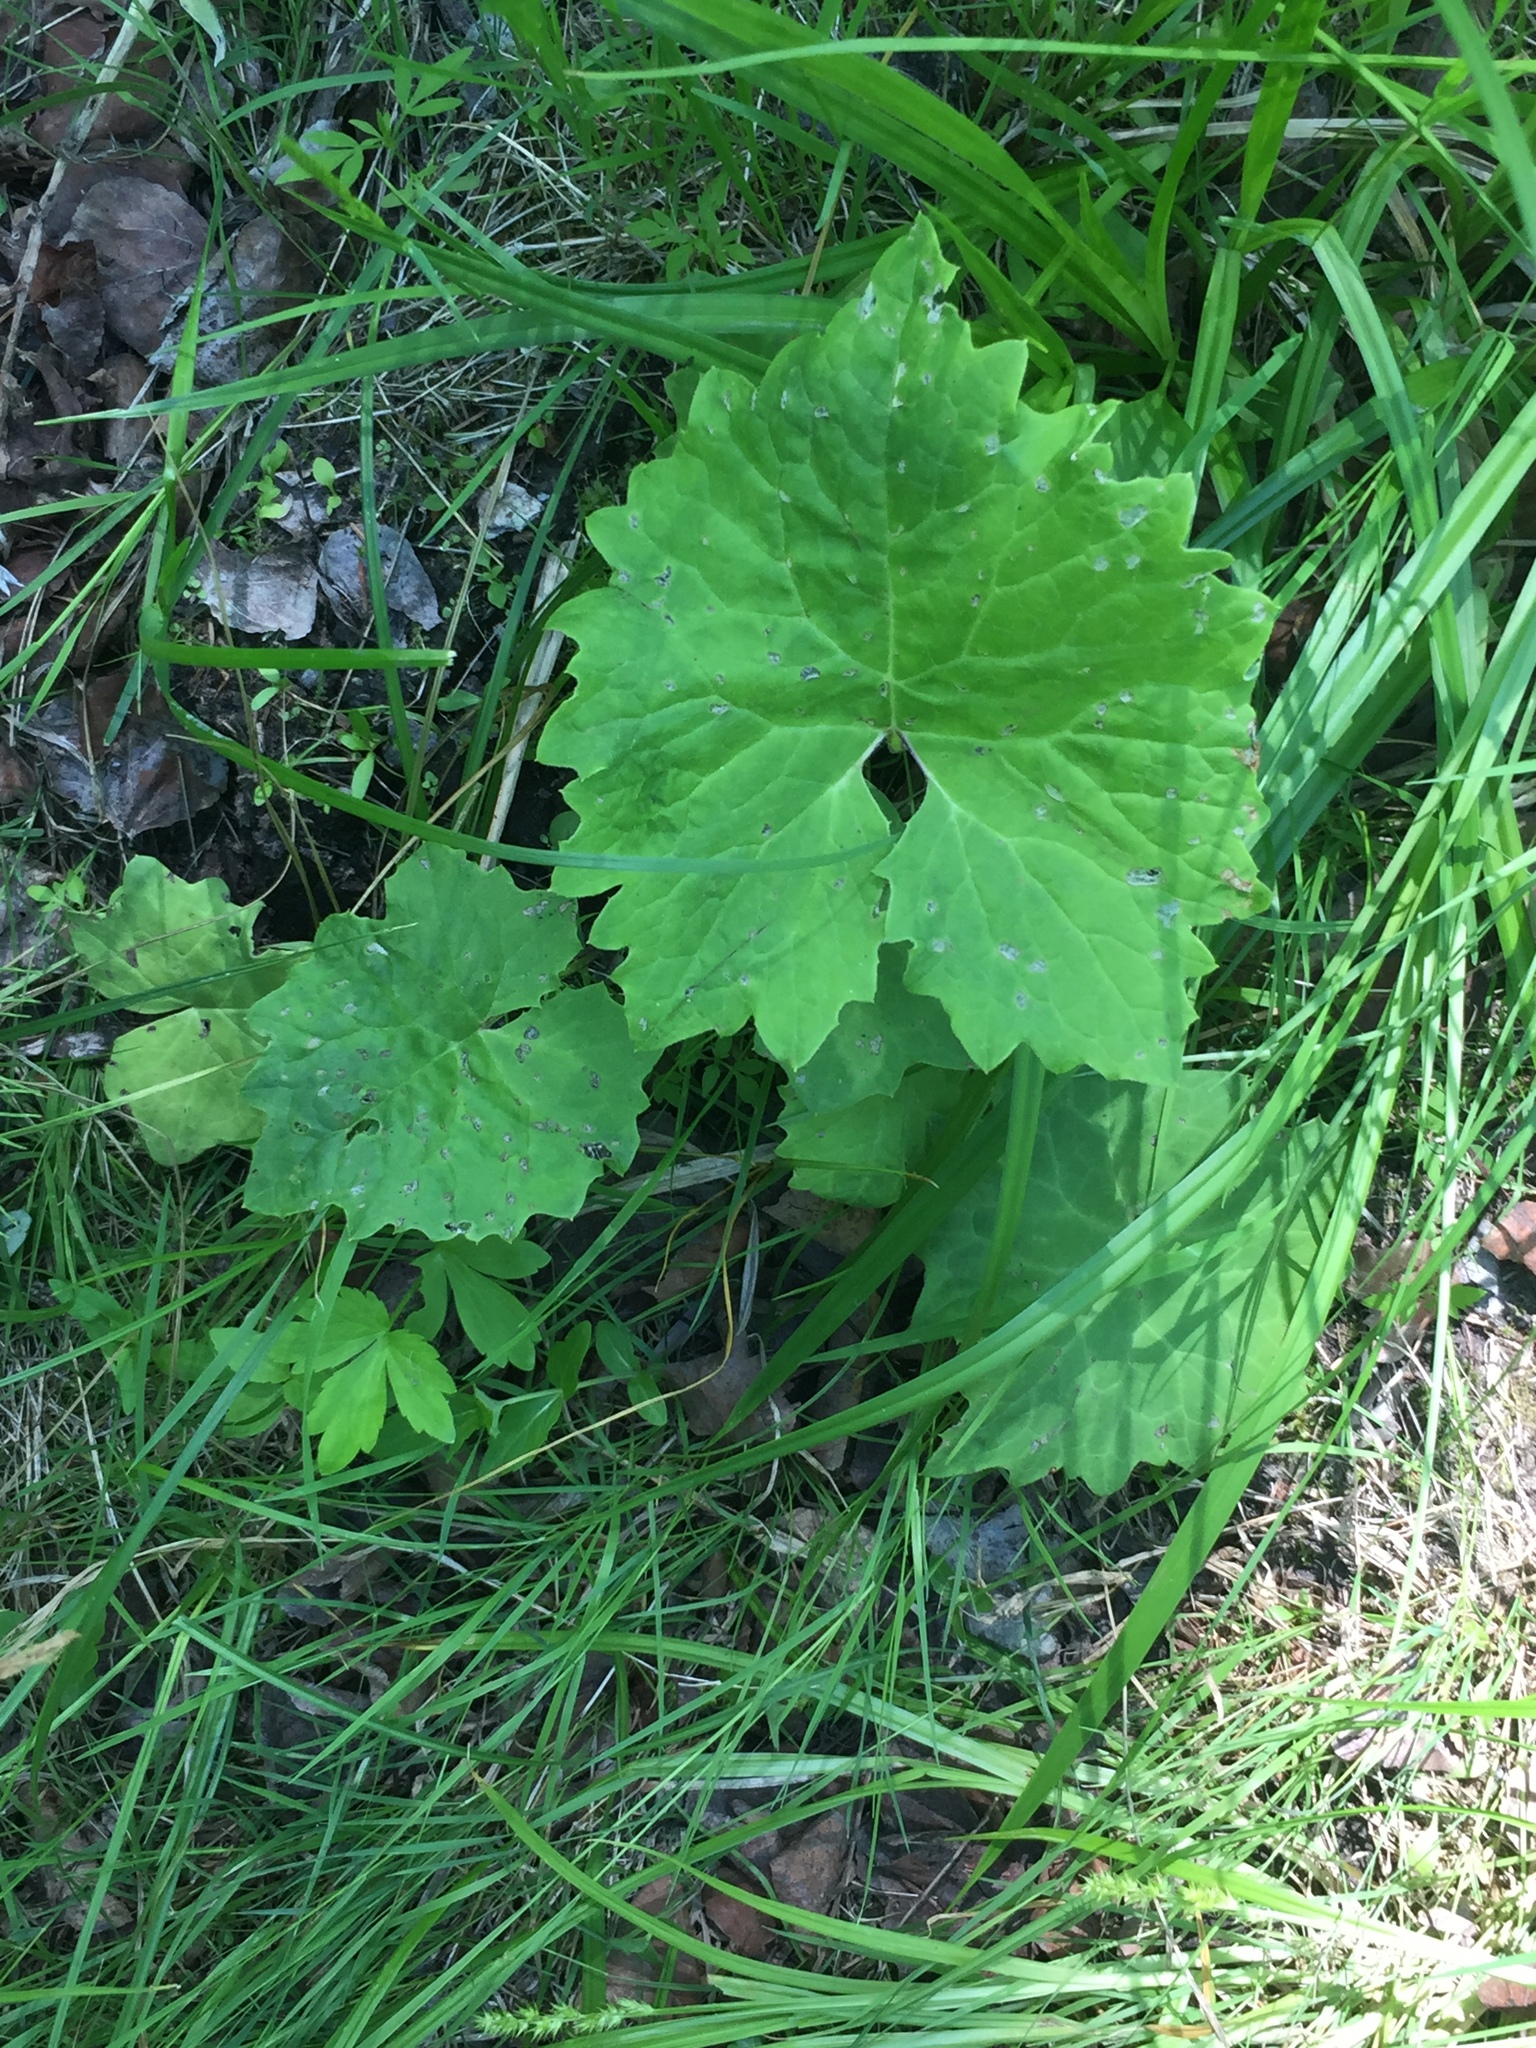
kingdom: Plantae
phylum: Tracheophyta
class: Magnoliopsida
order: Asterales
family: Asteraceae
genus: Petasites
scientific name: Petasites frigidus
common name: Arctic butterbur
